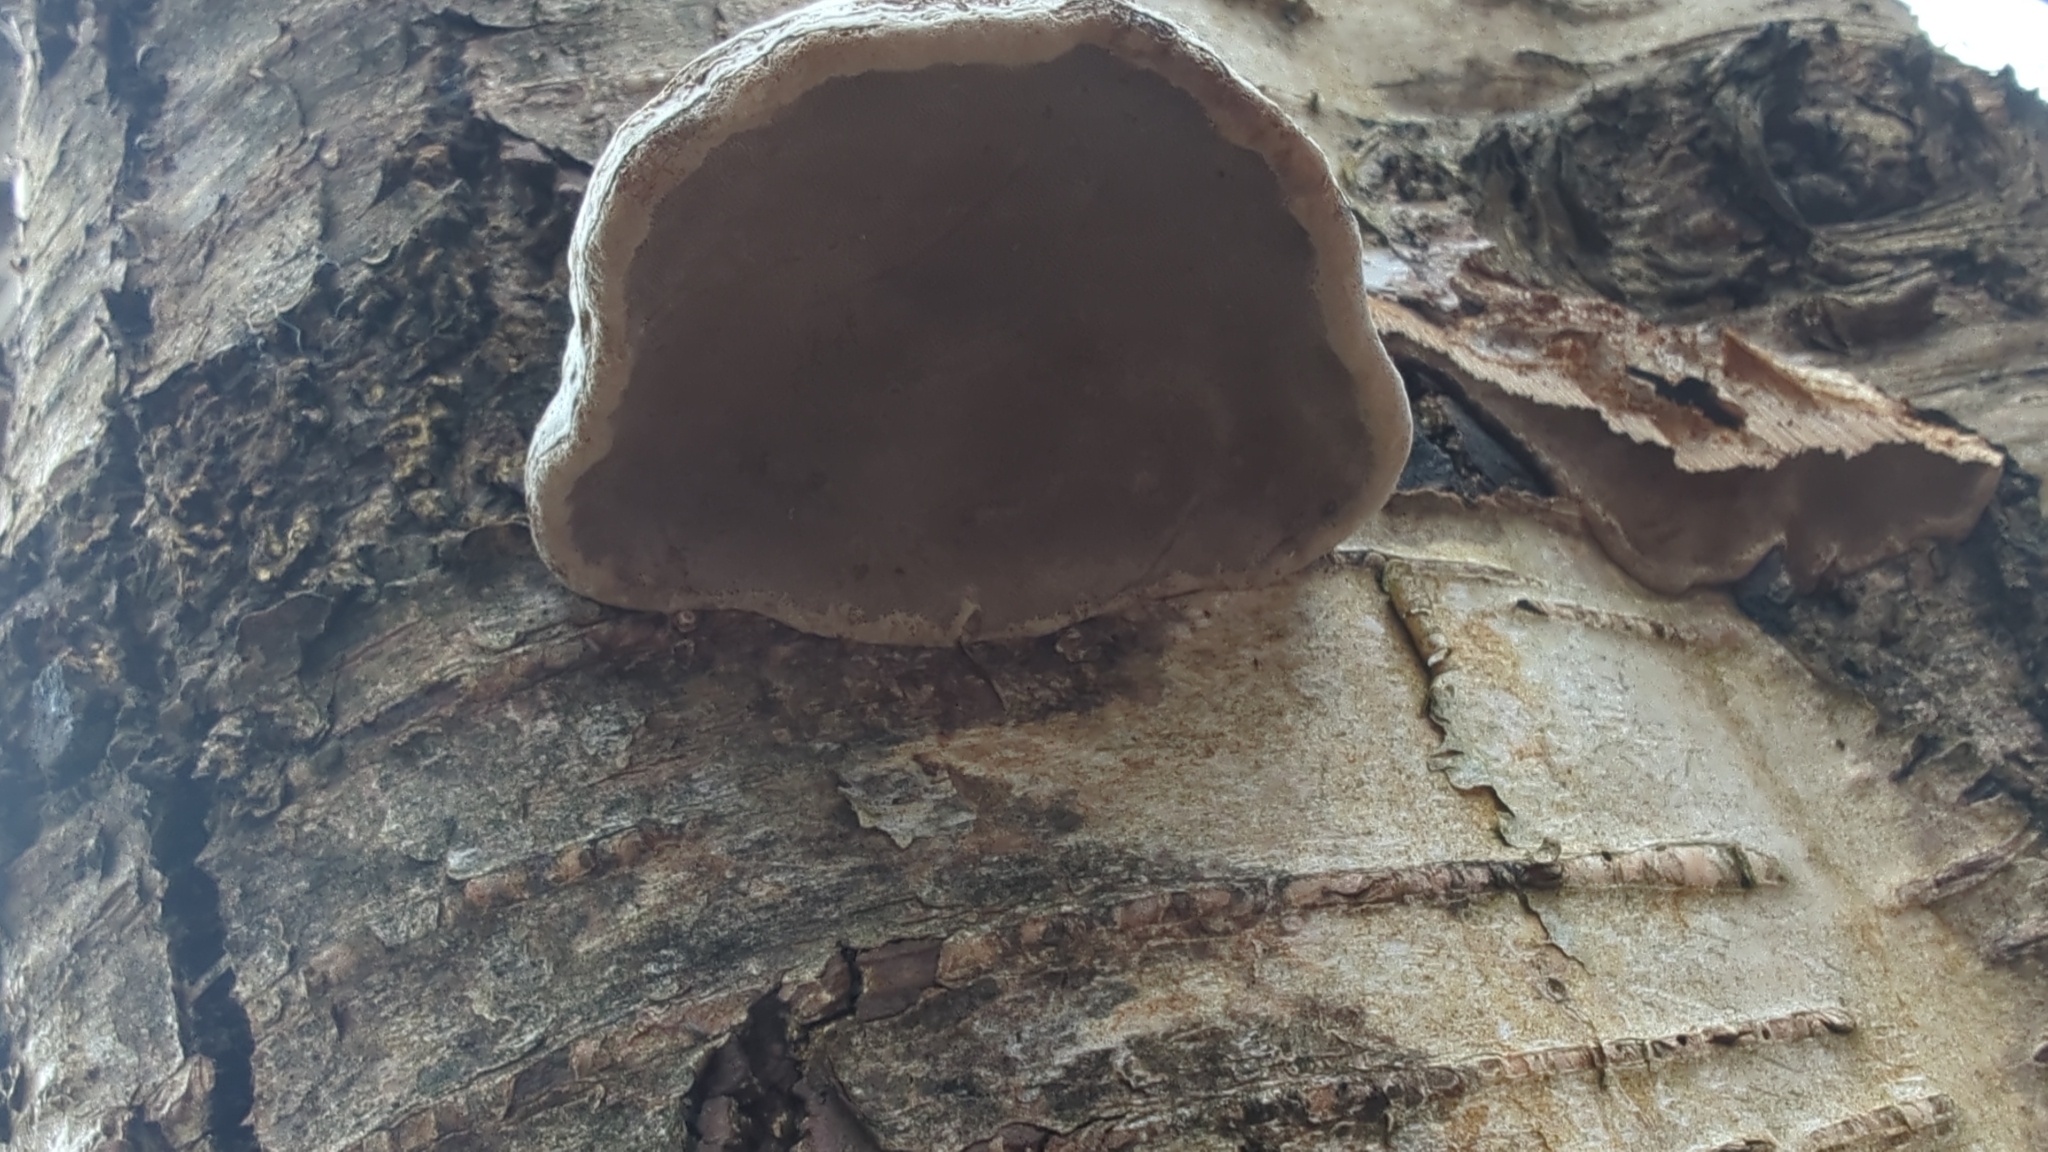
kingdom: Fungi
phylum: Basidiomycota
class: Agaricomycetes
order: Polyporales
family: Polyporaceae
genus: Fomes
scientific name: Fomes fomentarius
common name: Hoof fungus
